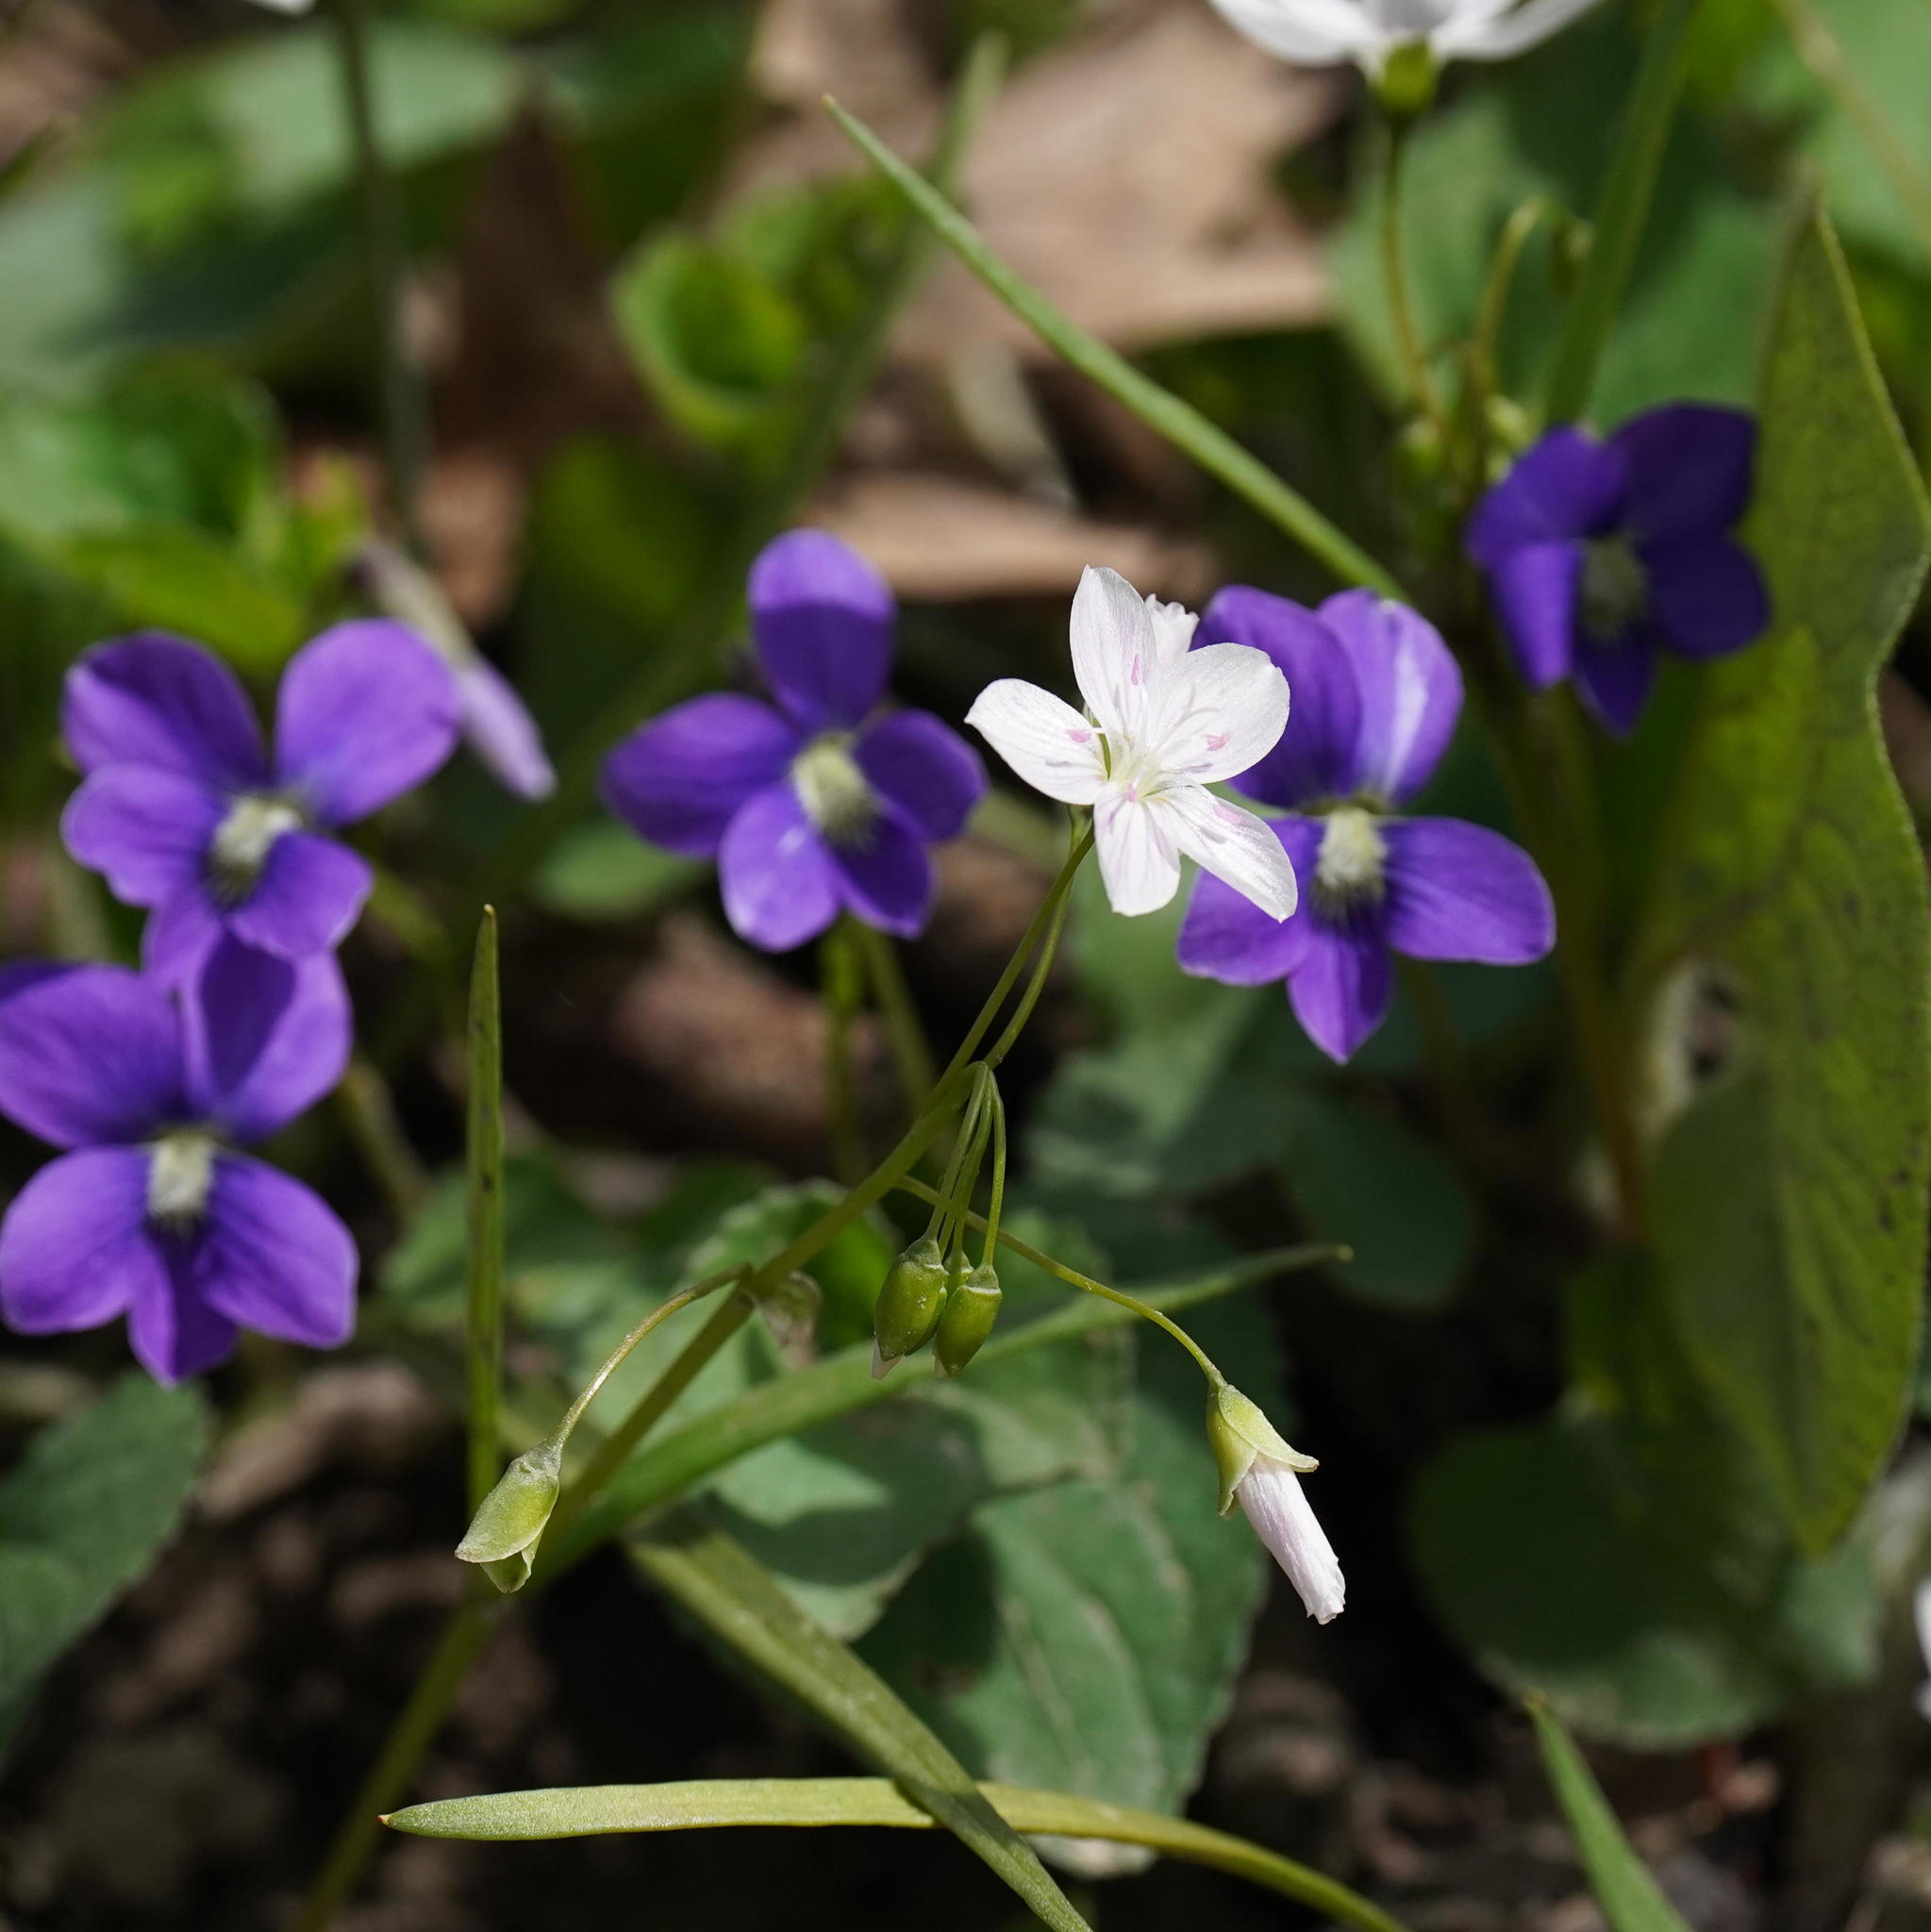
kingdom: Plantae
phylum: Tracheophyta
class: Magnoliopsida
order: Caryophyllales
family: Montiaceae
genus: Claytonia
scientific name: Claytonia virginica
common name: Virginia springbeauty
